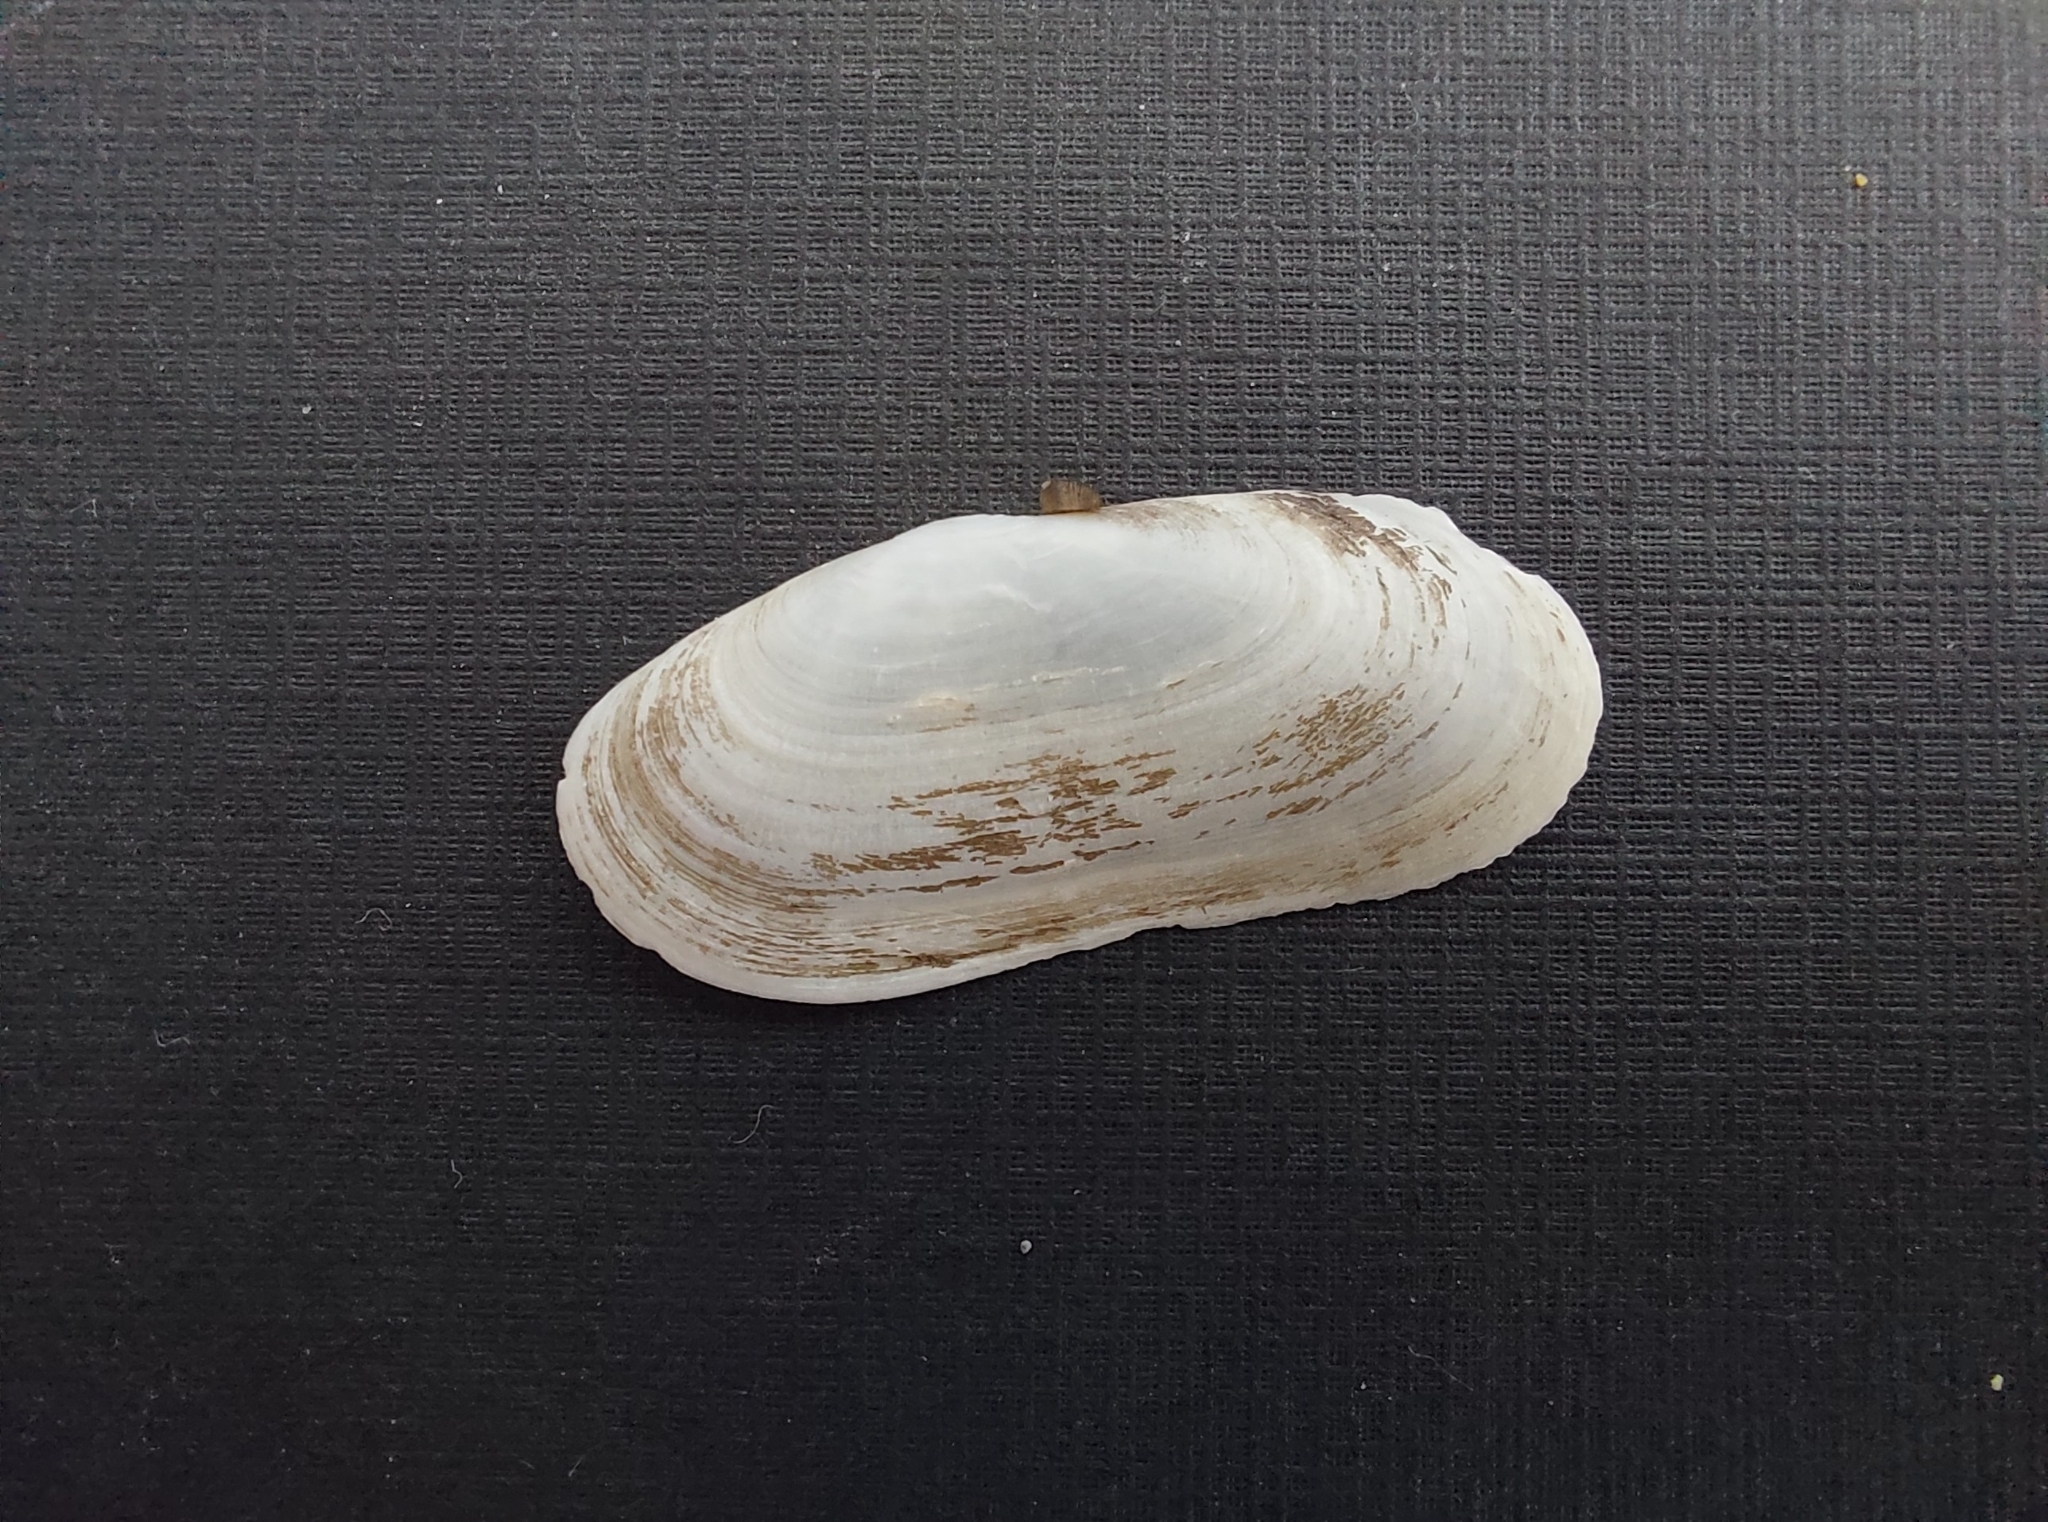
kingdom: Animalia
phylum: Mollusca
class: Bivalvia
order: Cardiida
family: Solecurtidae
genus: Azorinus
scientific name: Azorinus chamasolen
